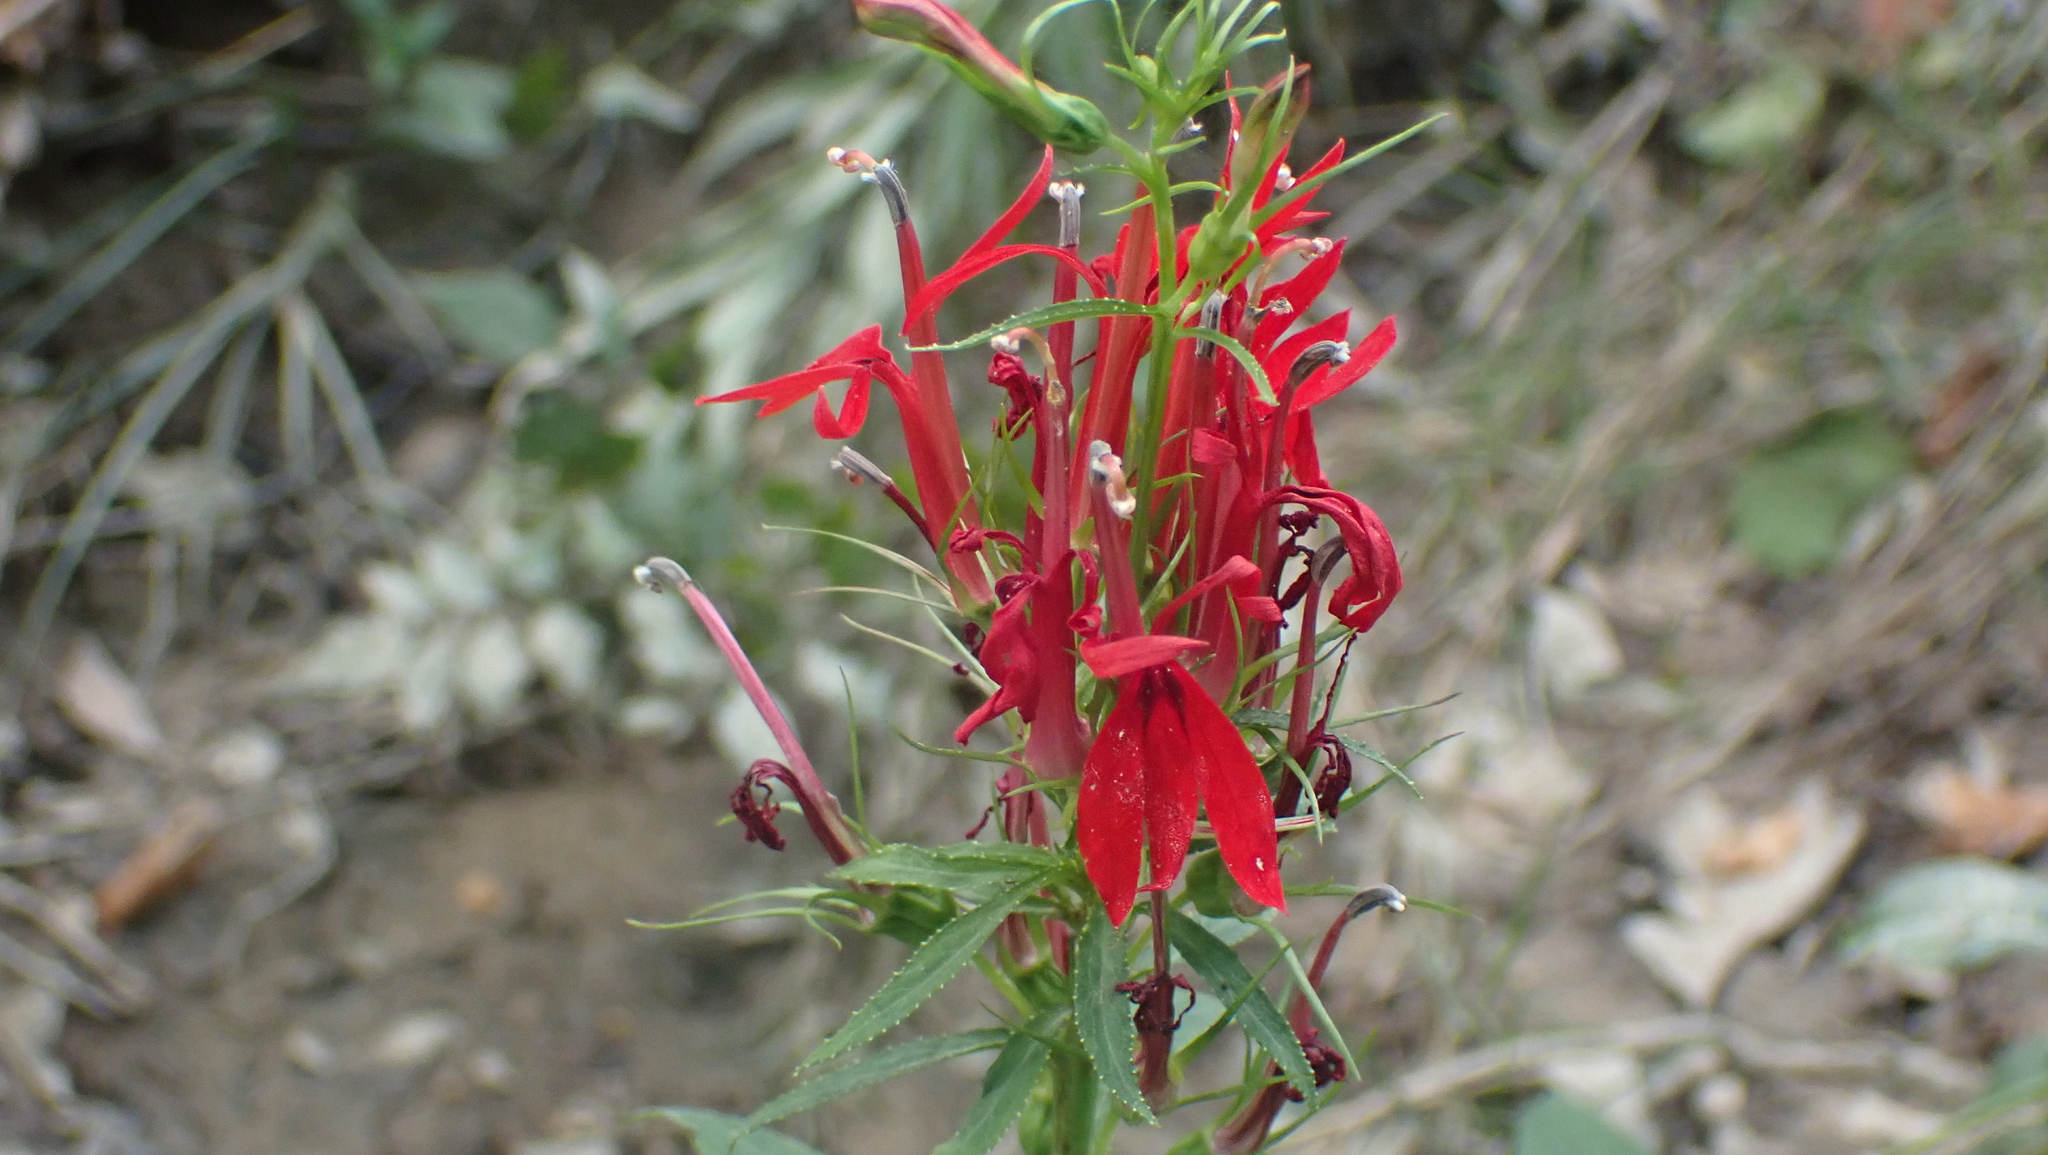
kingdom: Plantae
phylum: Tracheophyta
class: Magnoliopsida
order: Asterales
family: Campanulaceae
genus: Lobelia
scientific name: Lobelia cardinalis
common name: Cardinal flower
